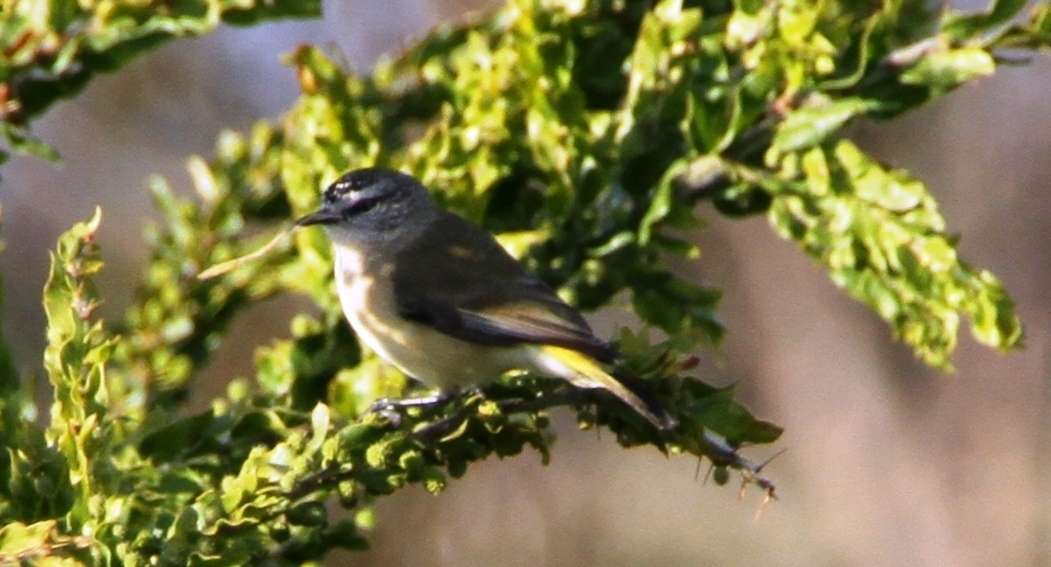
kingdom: Animalia
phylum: Chordata
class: Aves
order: Passeriformes
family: Acanthizidae
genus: Acanthiza
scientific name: Acanthiza chrysorrhoa
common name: Yellow-rumped thornbill
